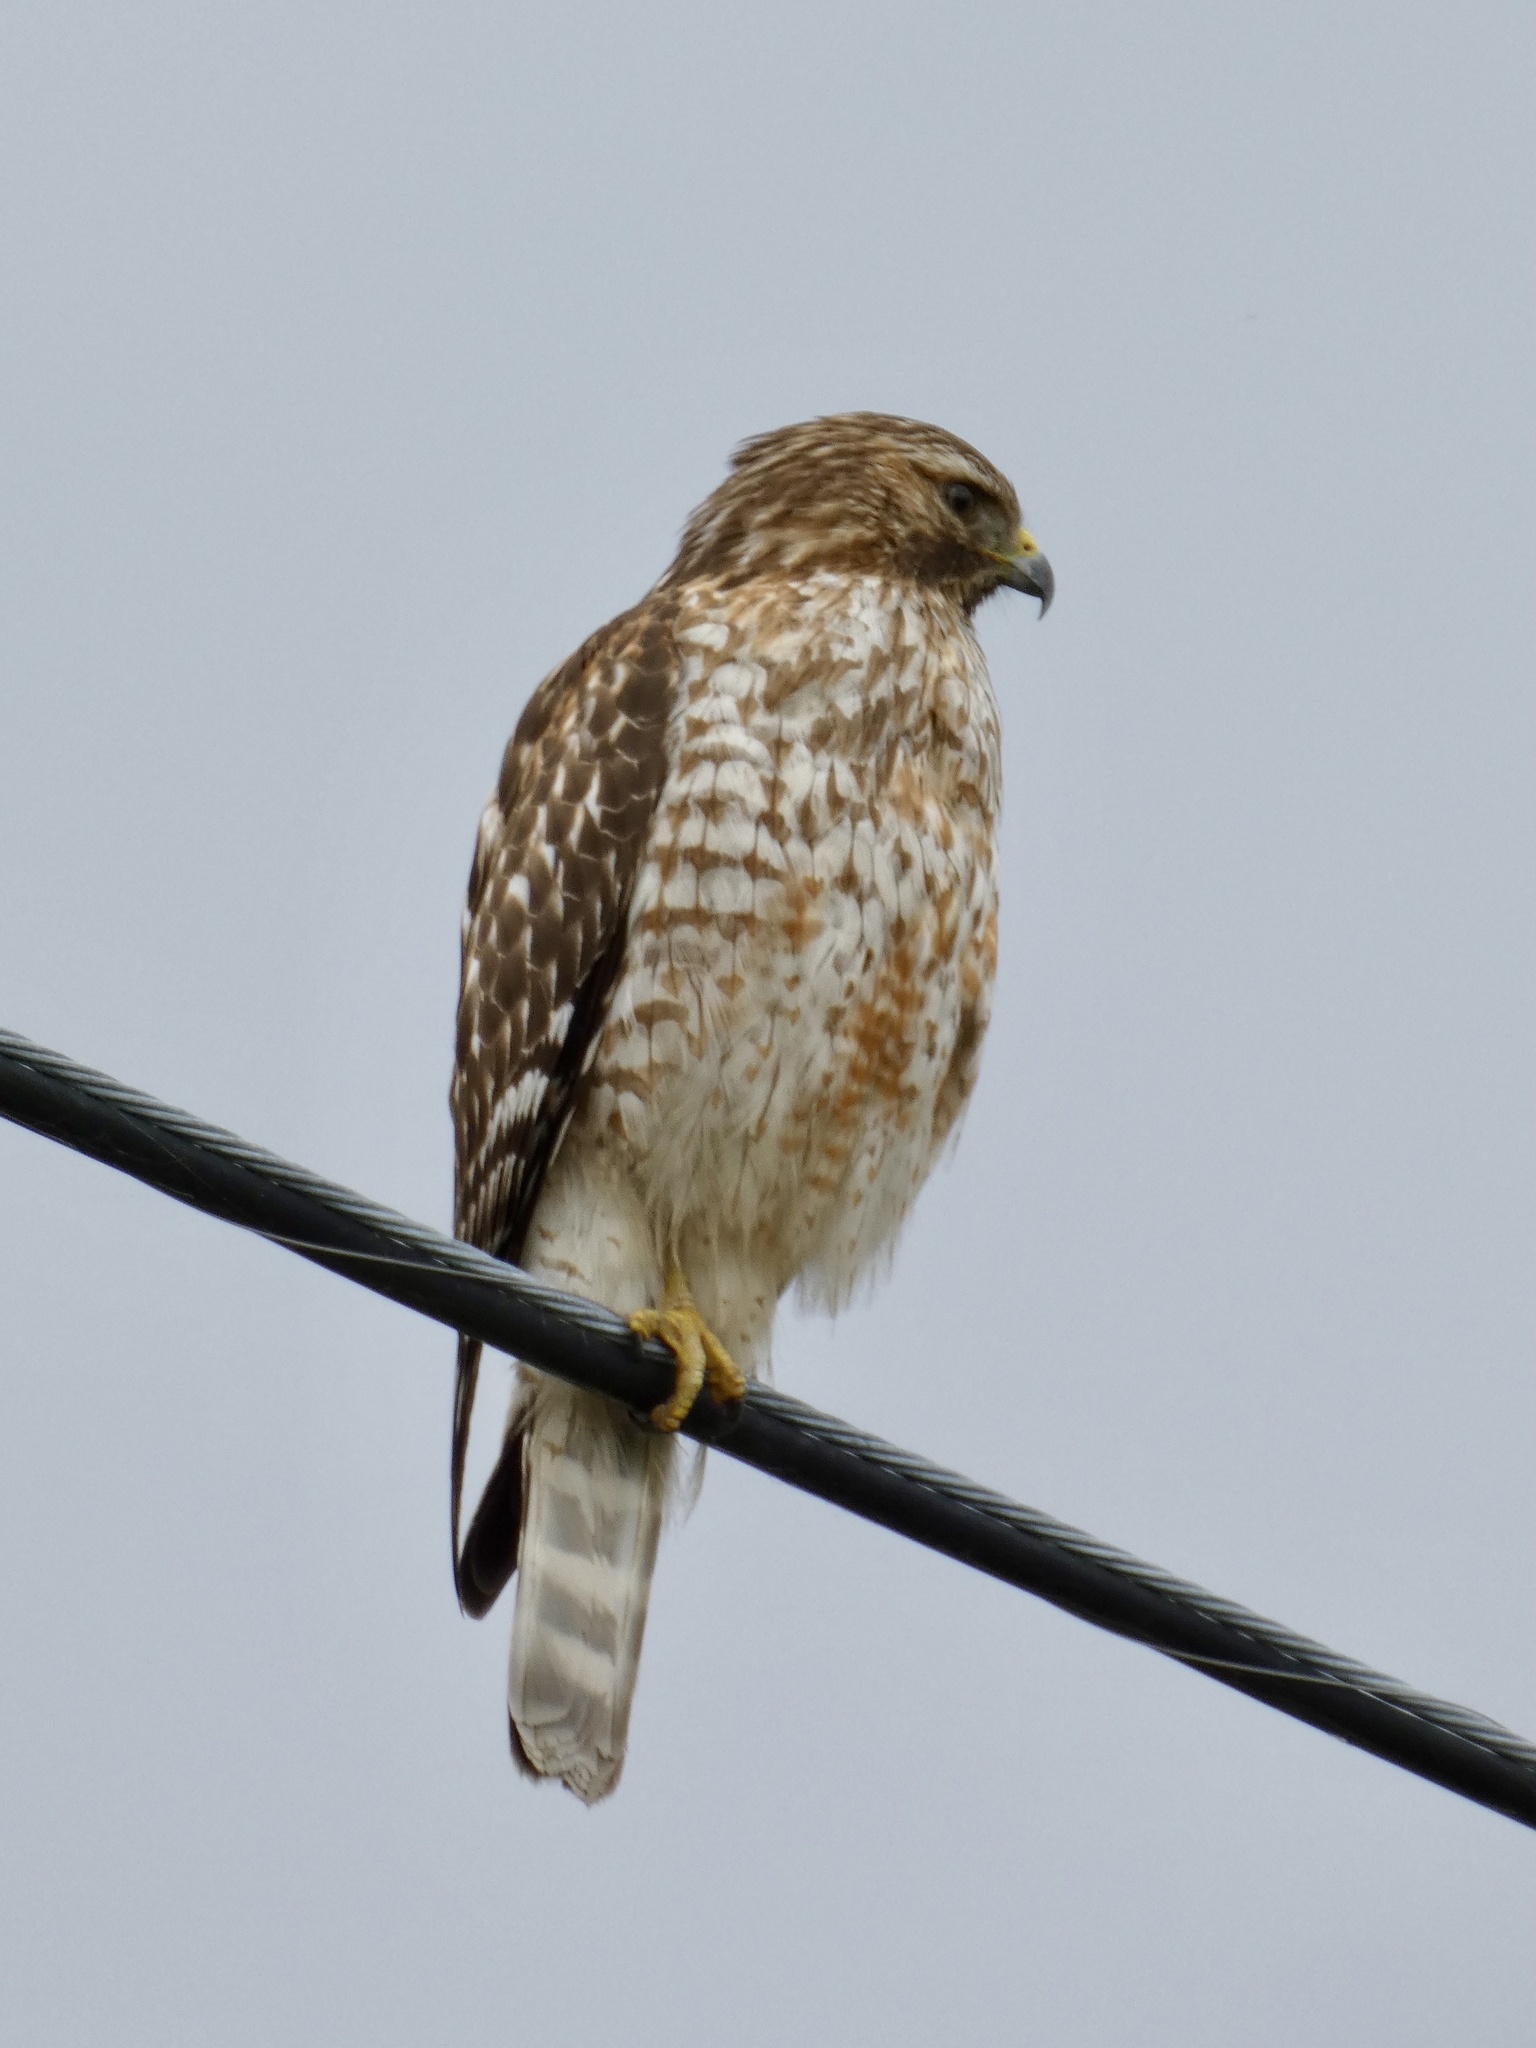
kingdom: Animalia
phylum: Chordata
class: Aves
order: Accipitriformes
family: Accipitridae
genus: Buteo
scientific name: Buteo lineatus
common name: Red-shouldered hawk
